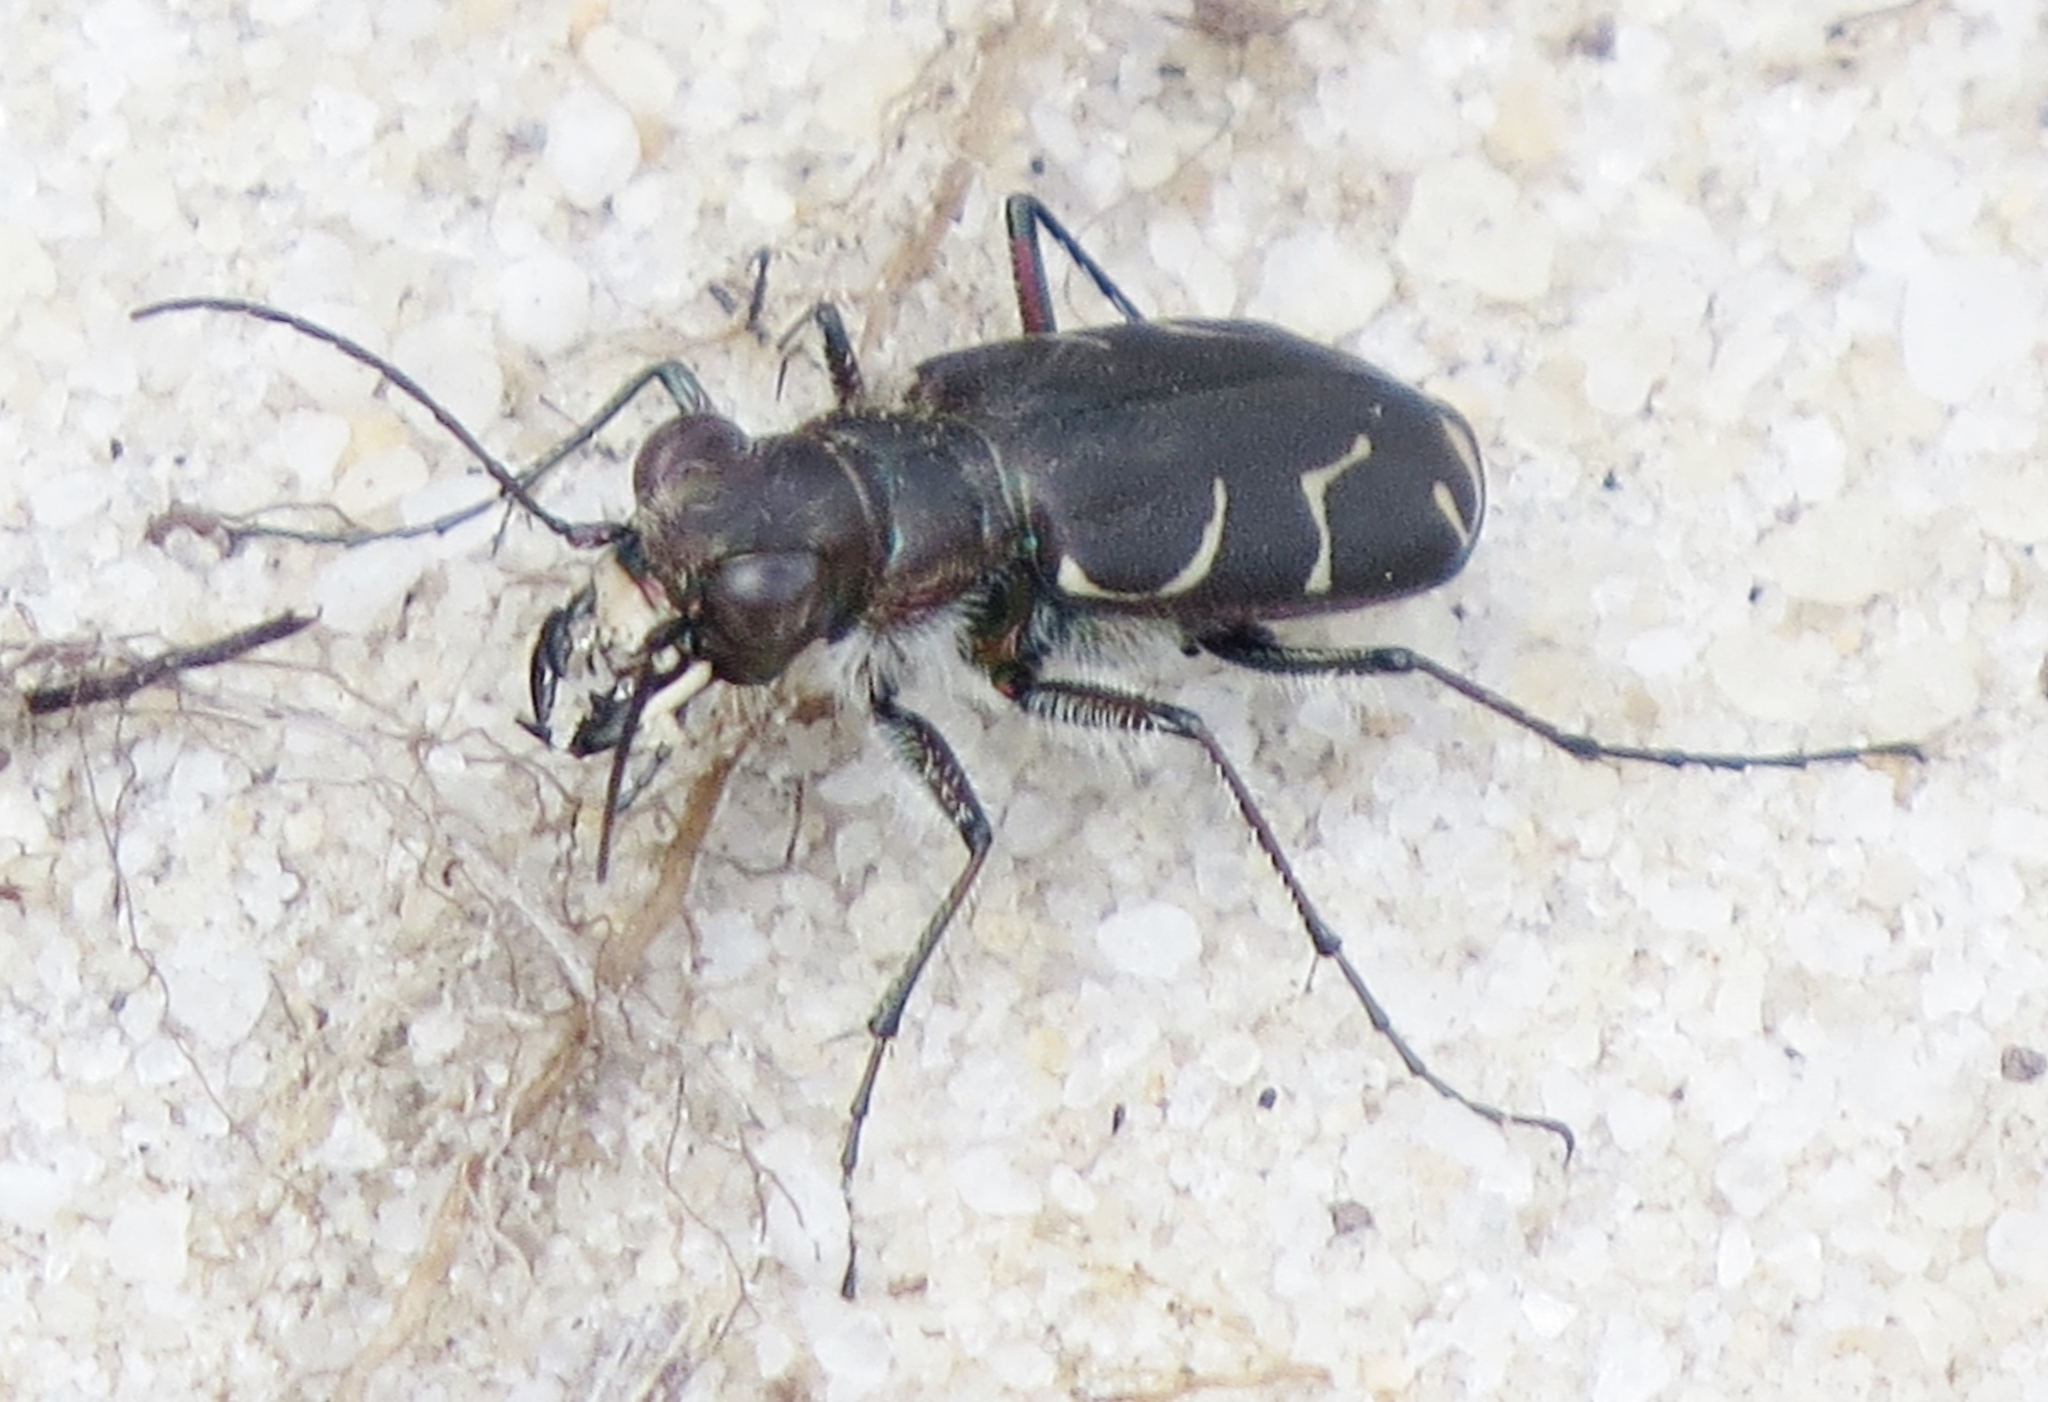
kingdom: Animalia
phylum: Arthropoda
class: Insecta
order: Coleoptera
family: Carabidae
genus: Cicindela
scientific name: Cicindela tranquebarica
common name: Oblique-lined tiger beetle
